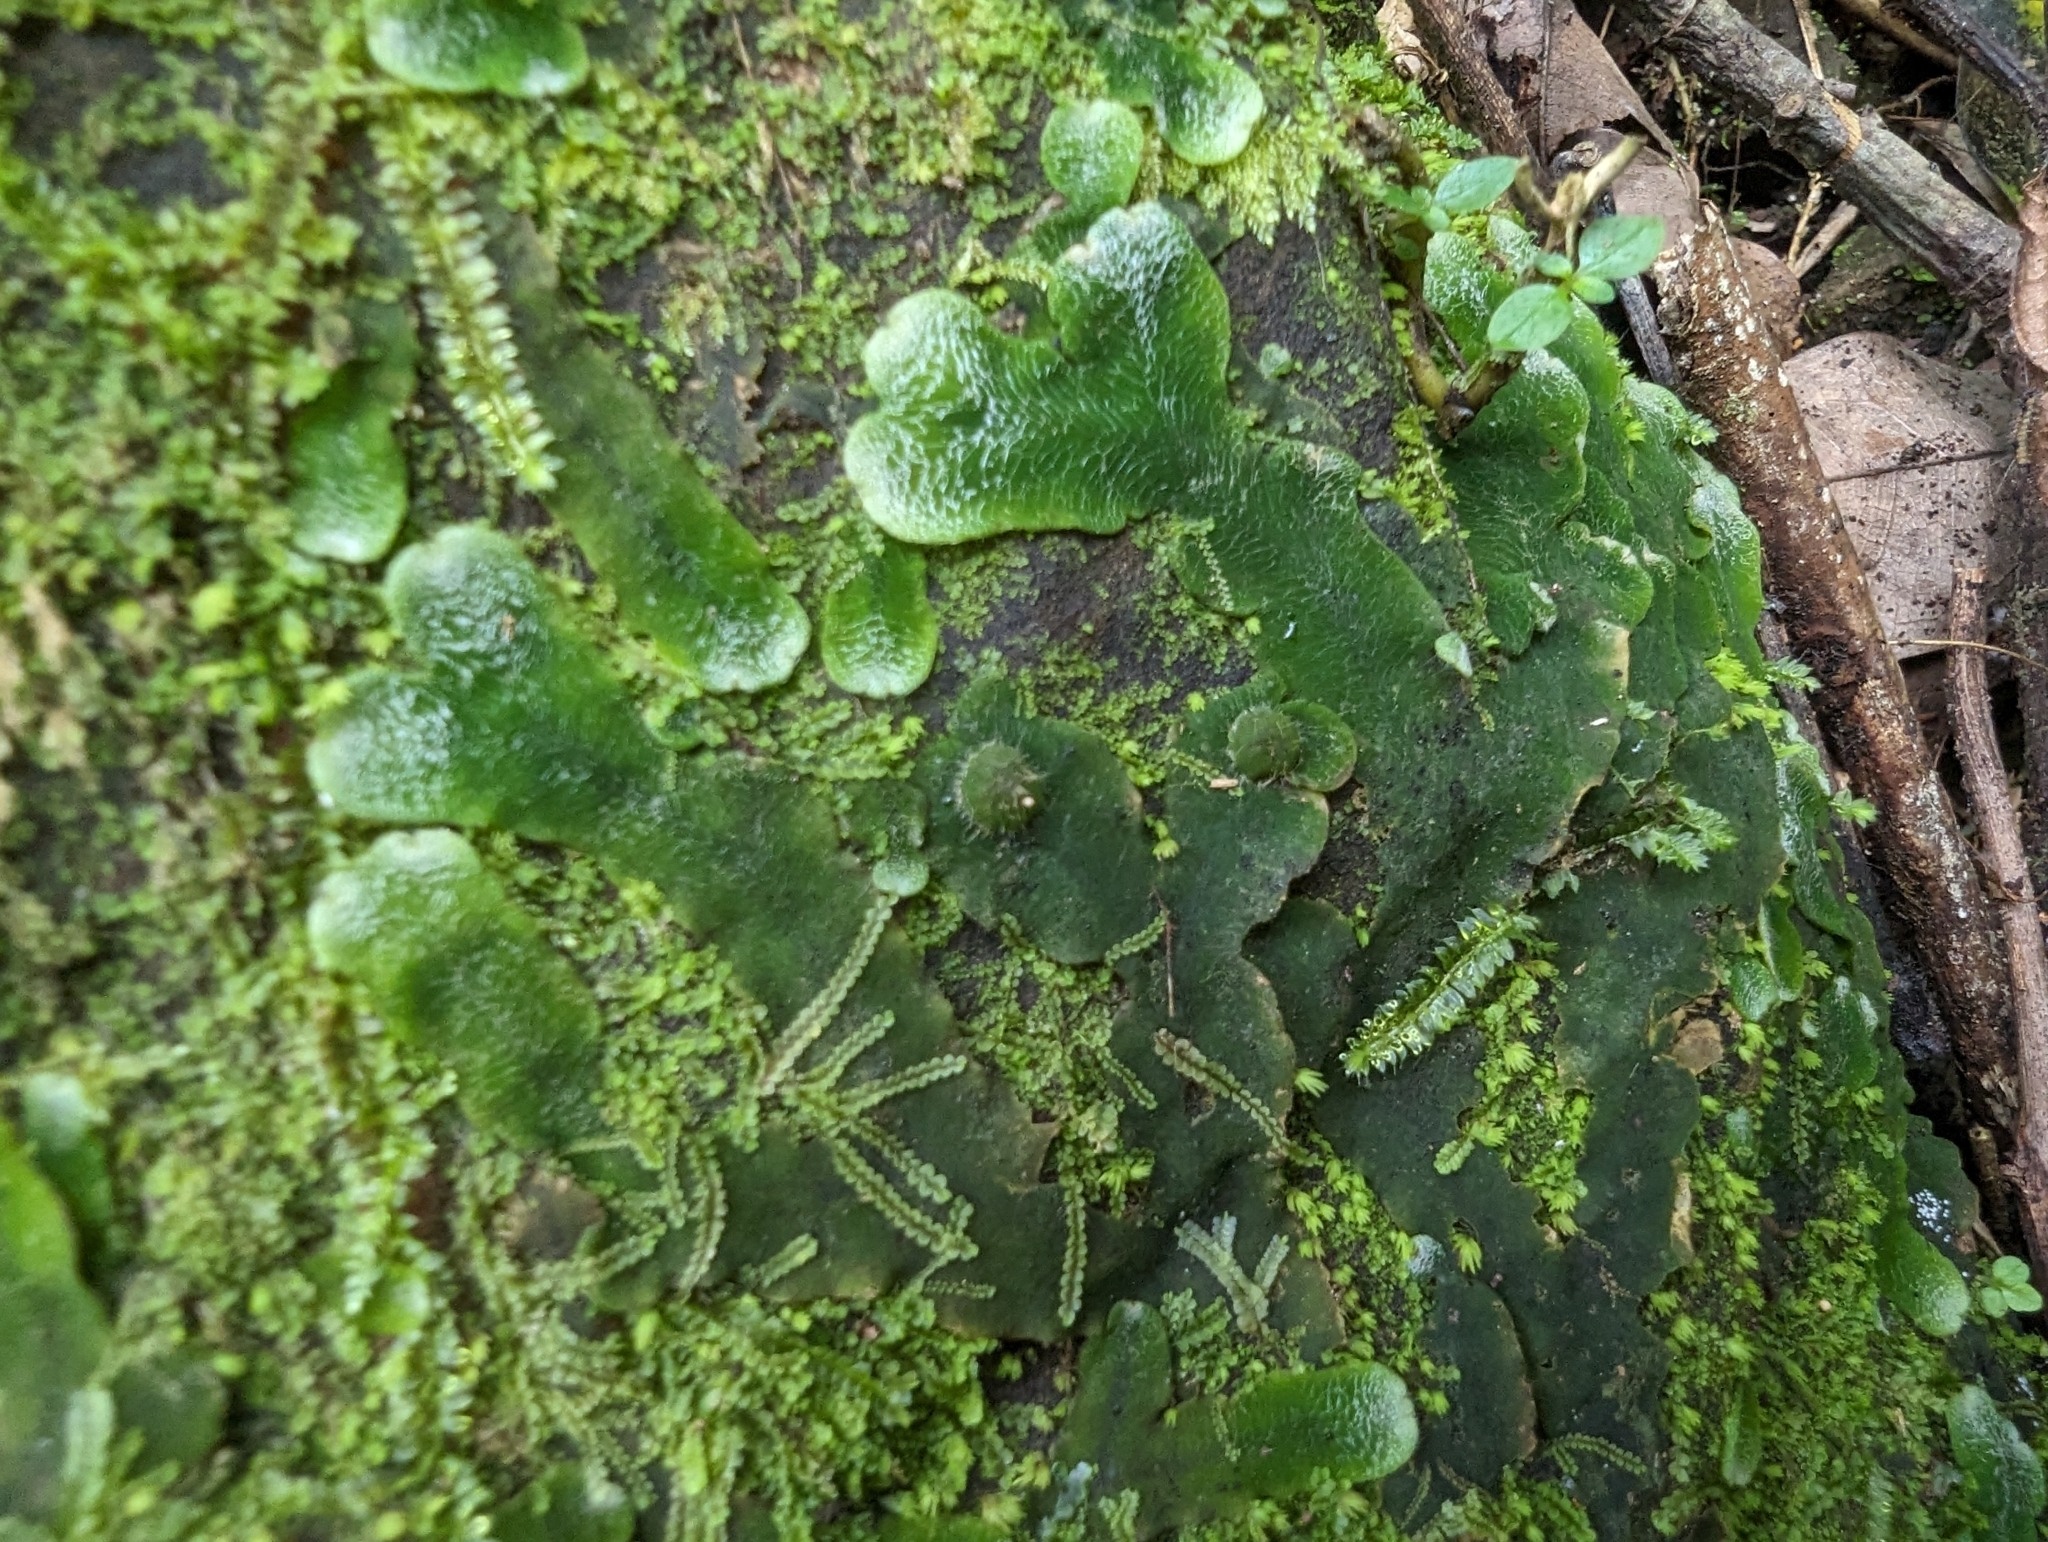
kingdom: Plantae
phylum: Marchantiophyta
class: Marchantiopsida
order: Marchantiales
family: Dumortieraceae
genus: Dumortiera
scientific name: Dumortiera hirsuta
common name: Dumortier's liverwort
